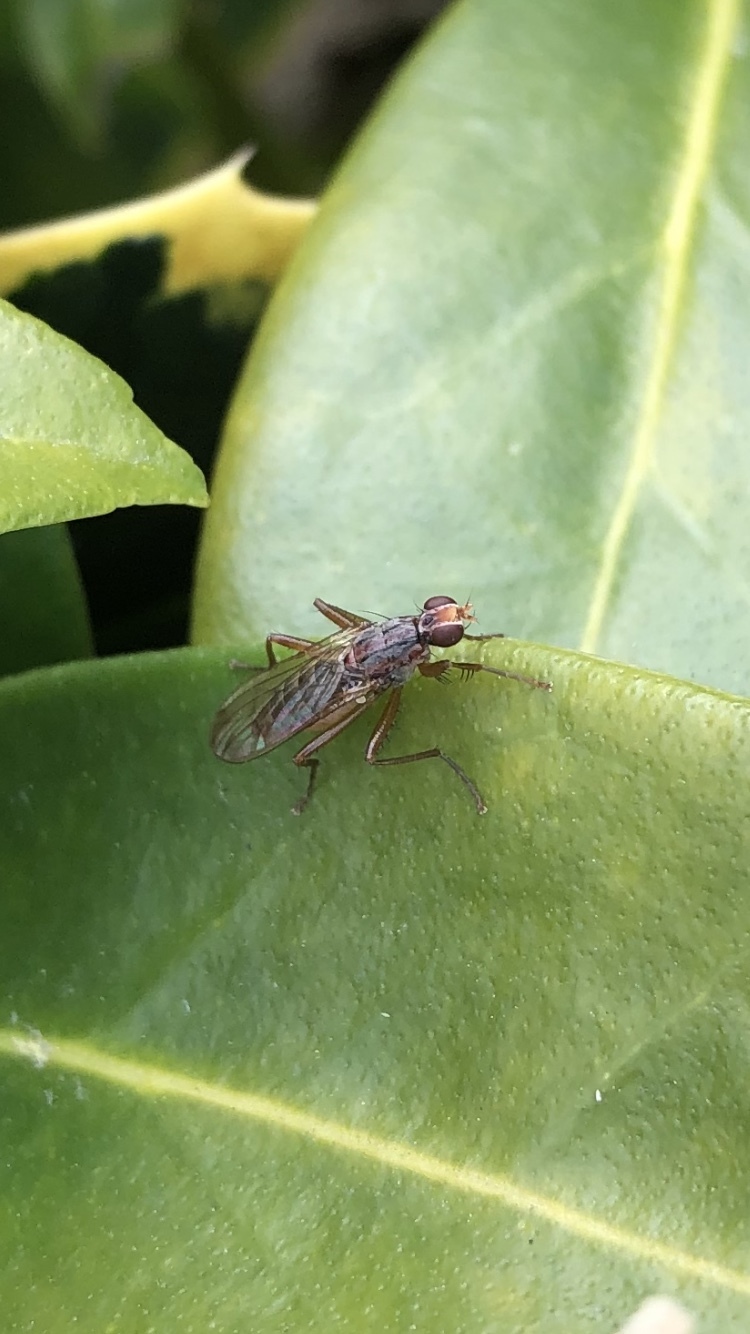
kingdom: Animalia
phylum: Arthropoda
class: Insecta
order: Diptera
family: Scathophagidae
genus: Norellia
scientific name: Norellia spinipes
